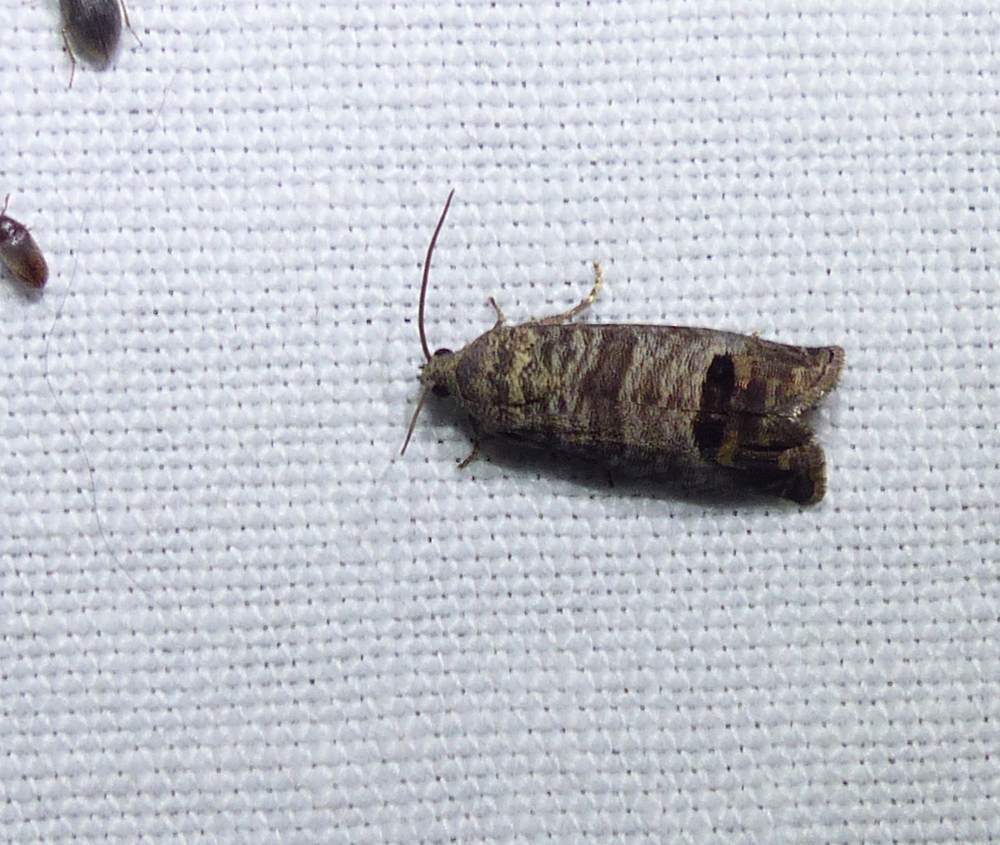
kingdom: Animalia
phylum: Arthropoda
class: Insecta
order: Lepidoptera
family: Tortricidae
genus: Cydia
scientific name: Cydia pomonella
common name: Codling moth
